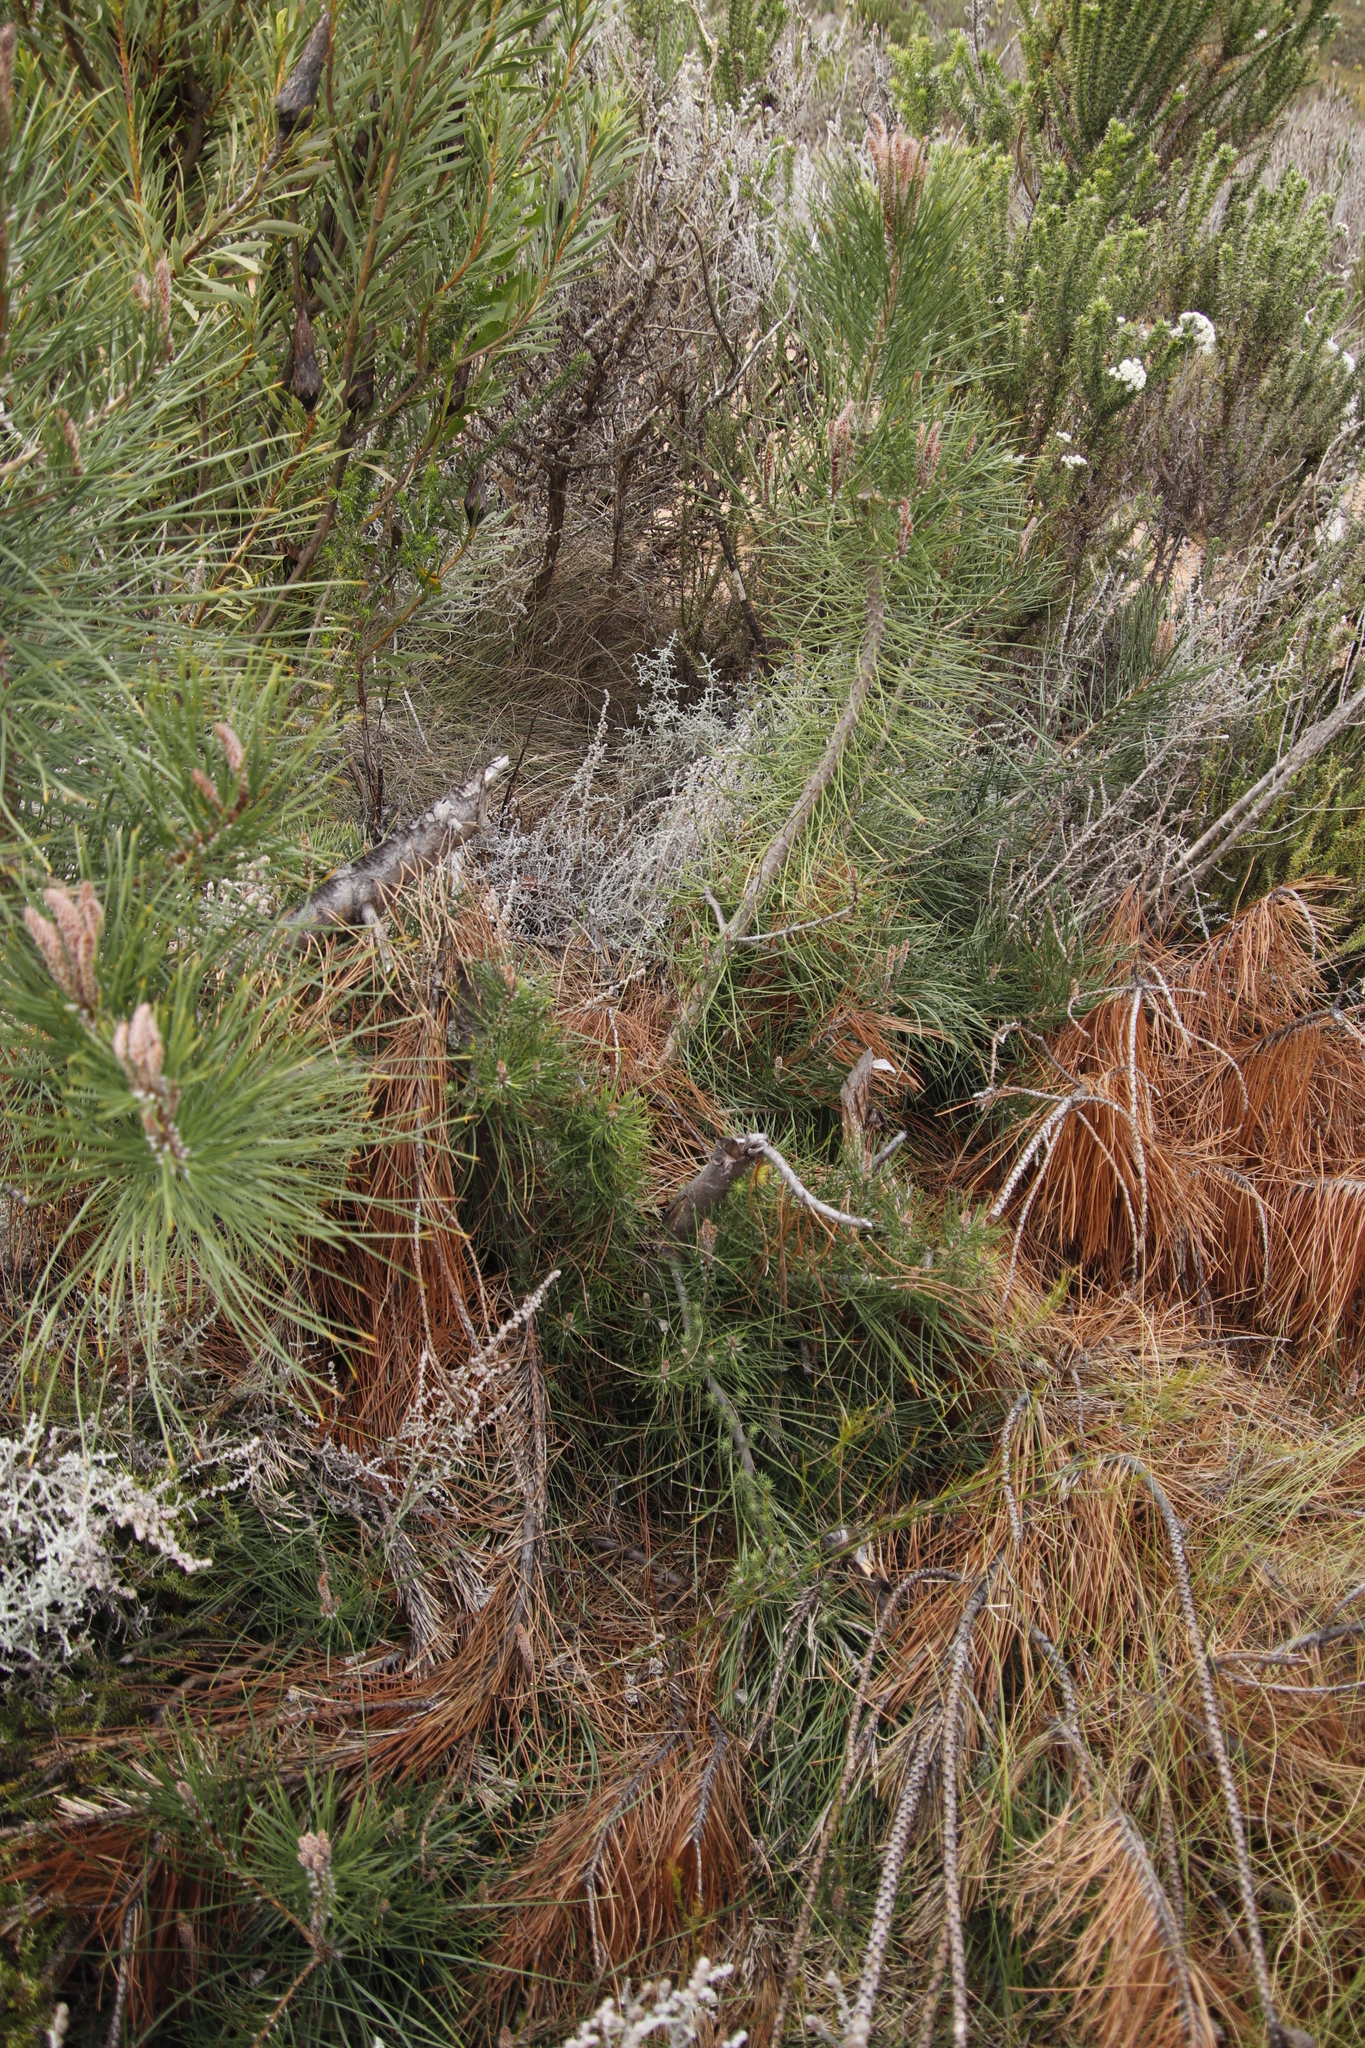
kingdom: Plantae
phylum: Tracheophyta
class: Pinopsida
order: Pinales
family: Pinaceae
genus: Pinus
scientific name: Pinus coulteri
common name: Coulter pine
